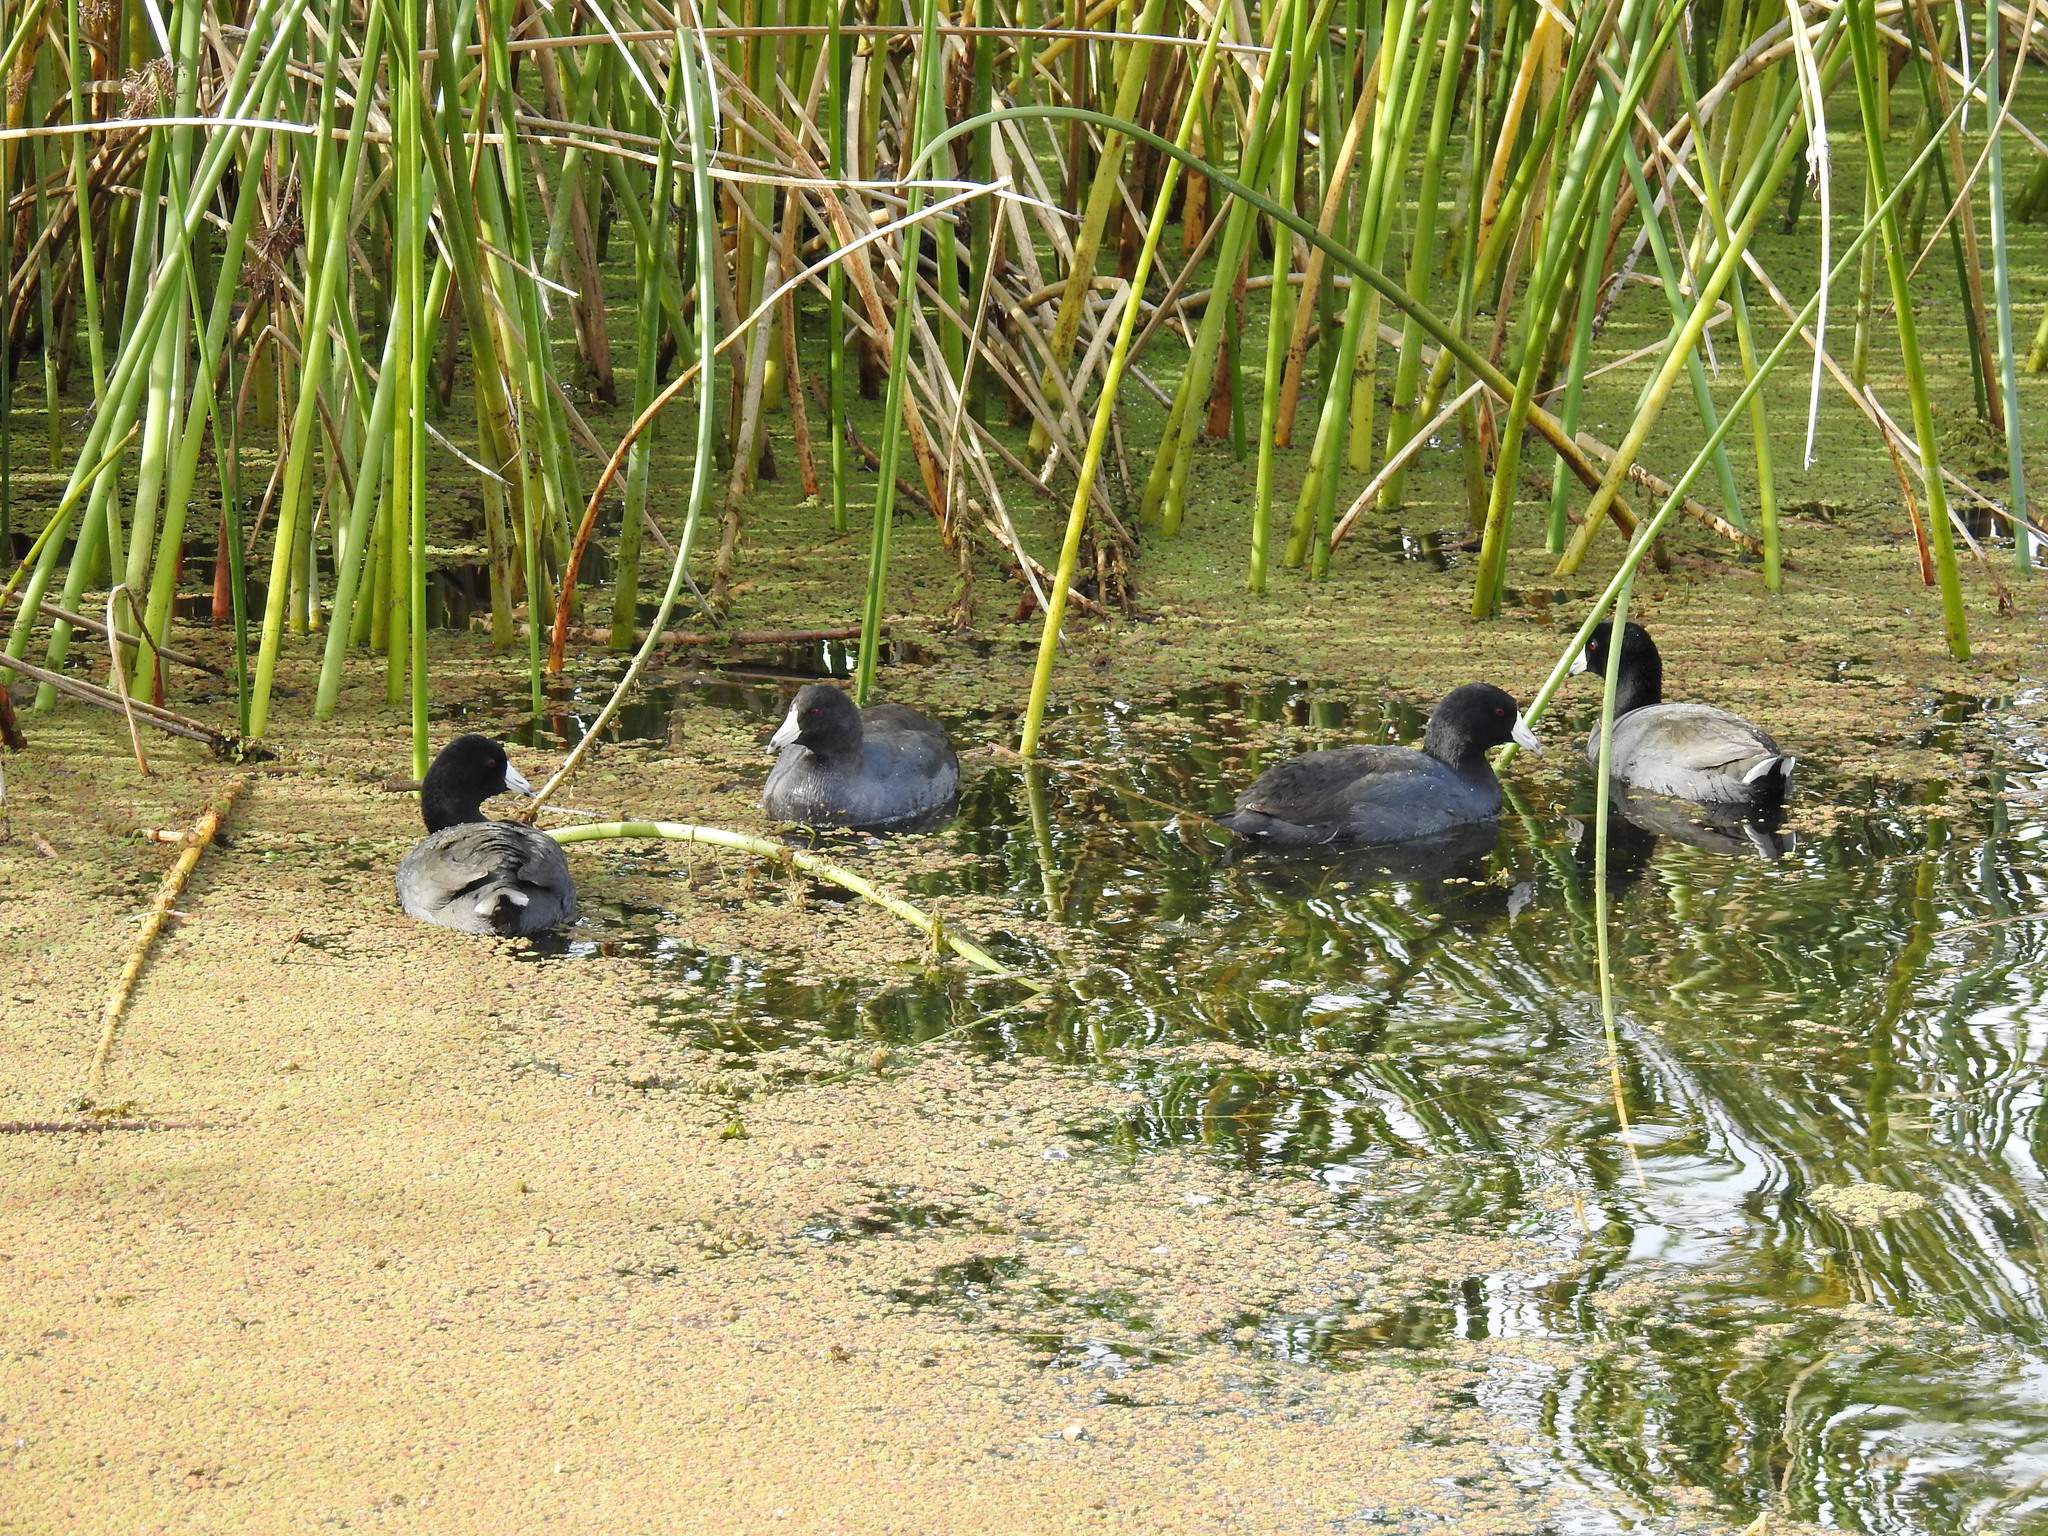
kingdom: Animalia
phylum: Chordata
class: Aves
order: Gruiformes
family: Rallidae
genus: Fulica
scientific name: Fulica americana
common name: American coot
